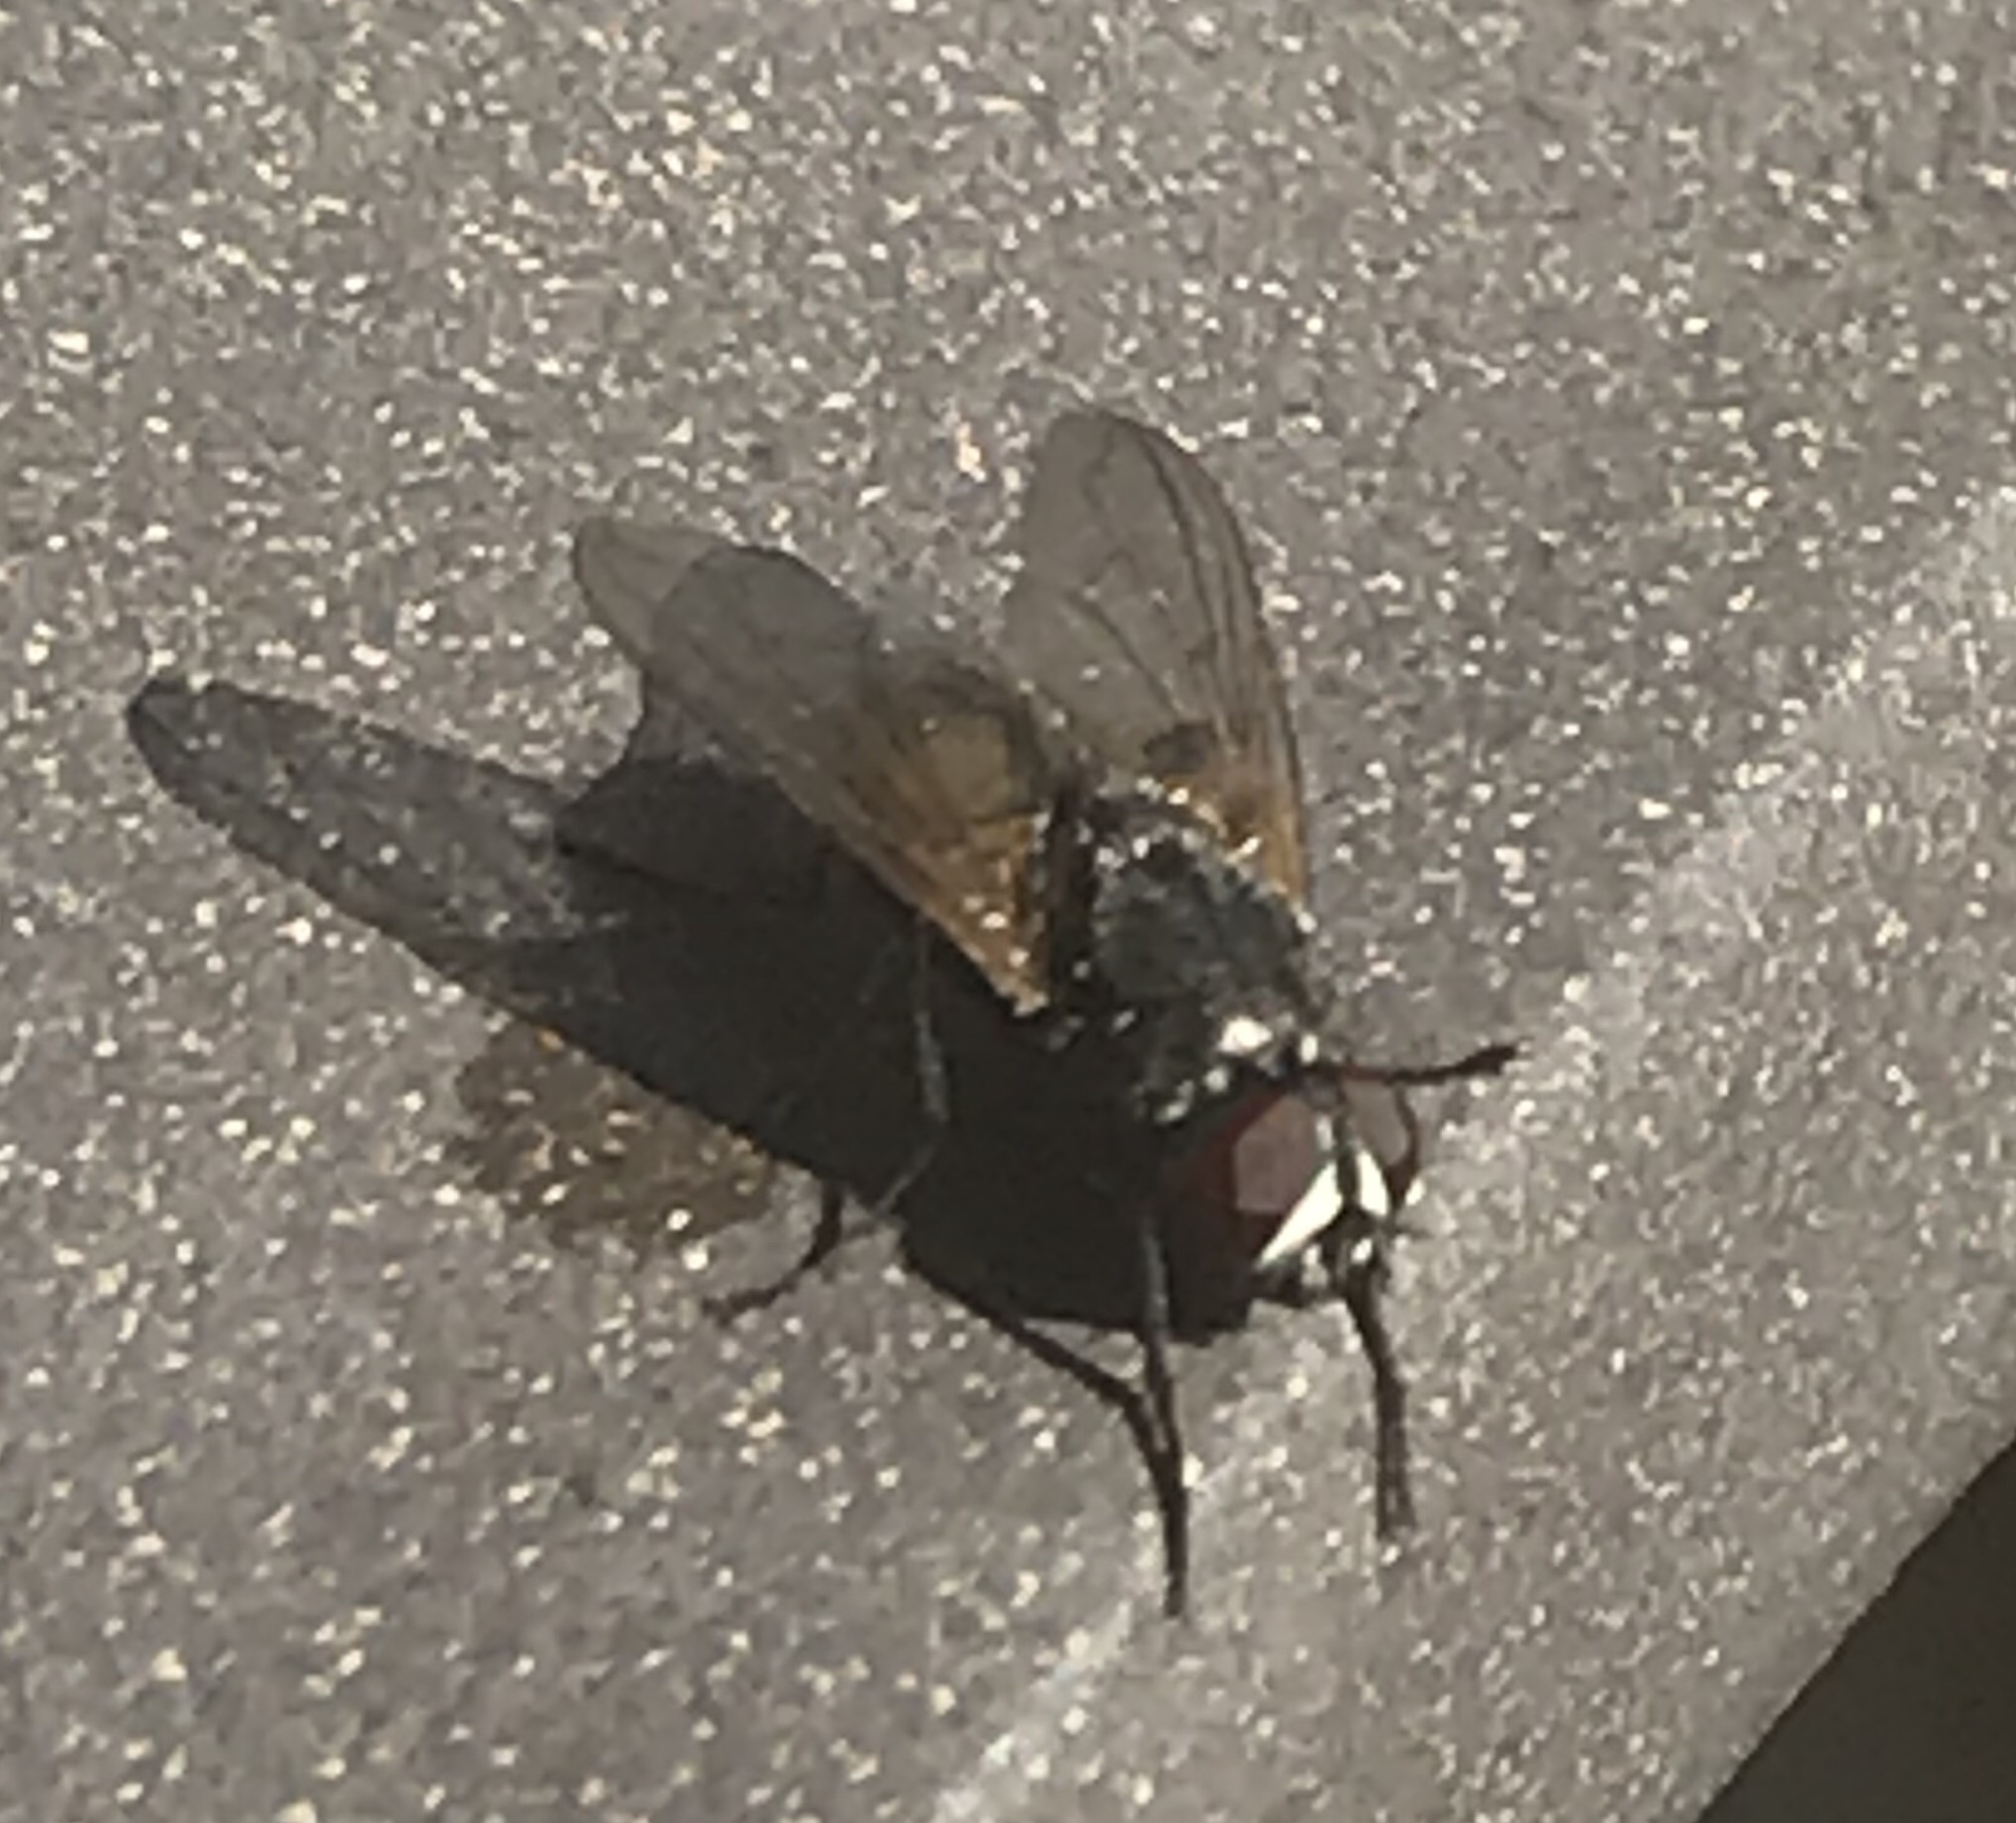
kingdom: Animalia
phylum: Arthropoda
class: Insecta
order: Diptera
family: Muscidae
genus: Musca
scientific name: Musca domestica
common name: House fly
